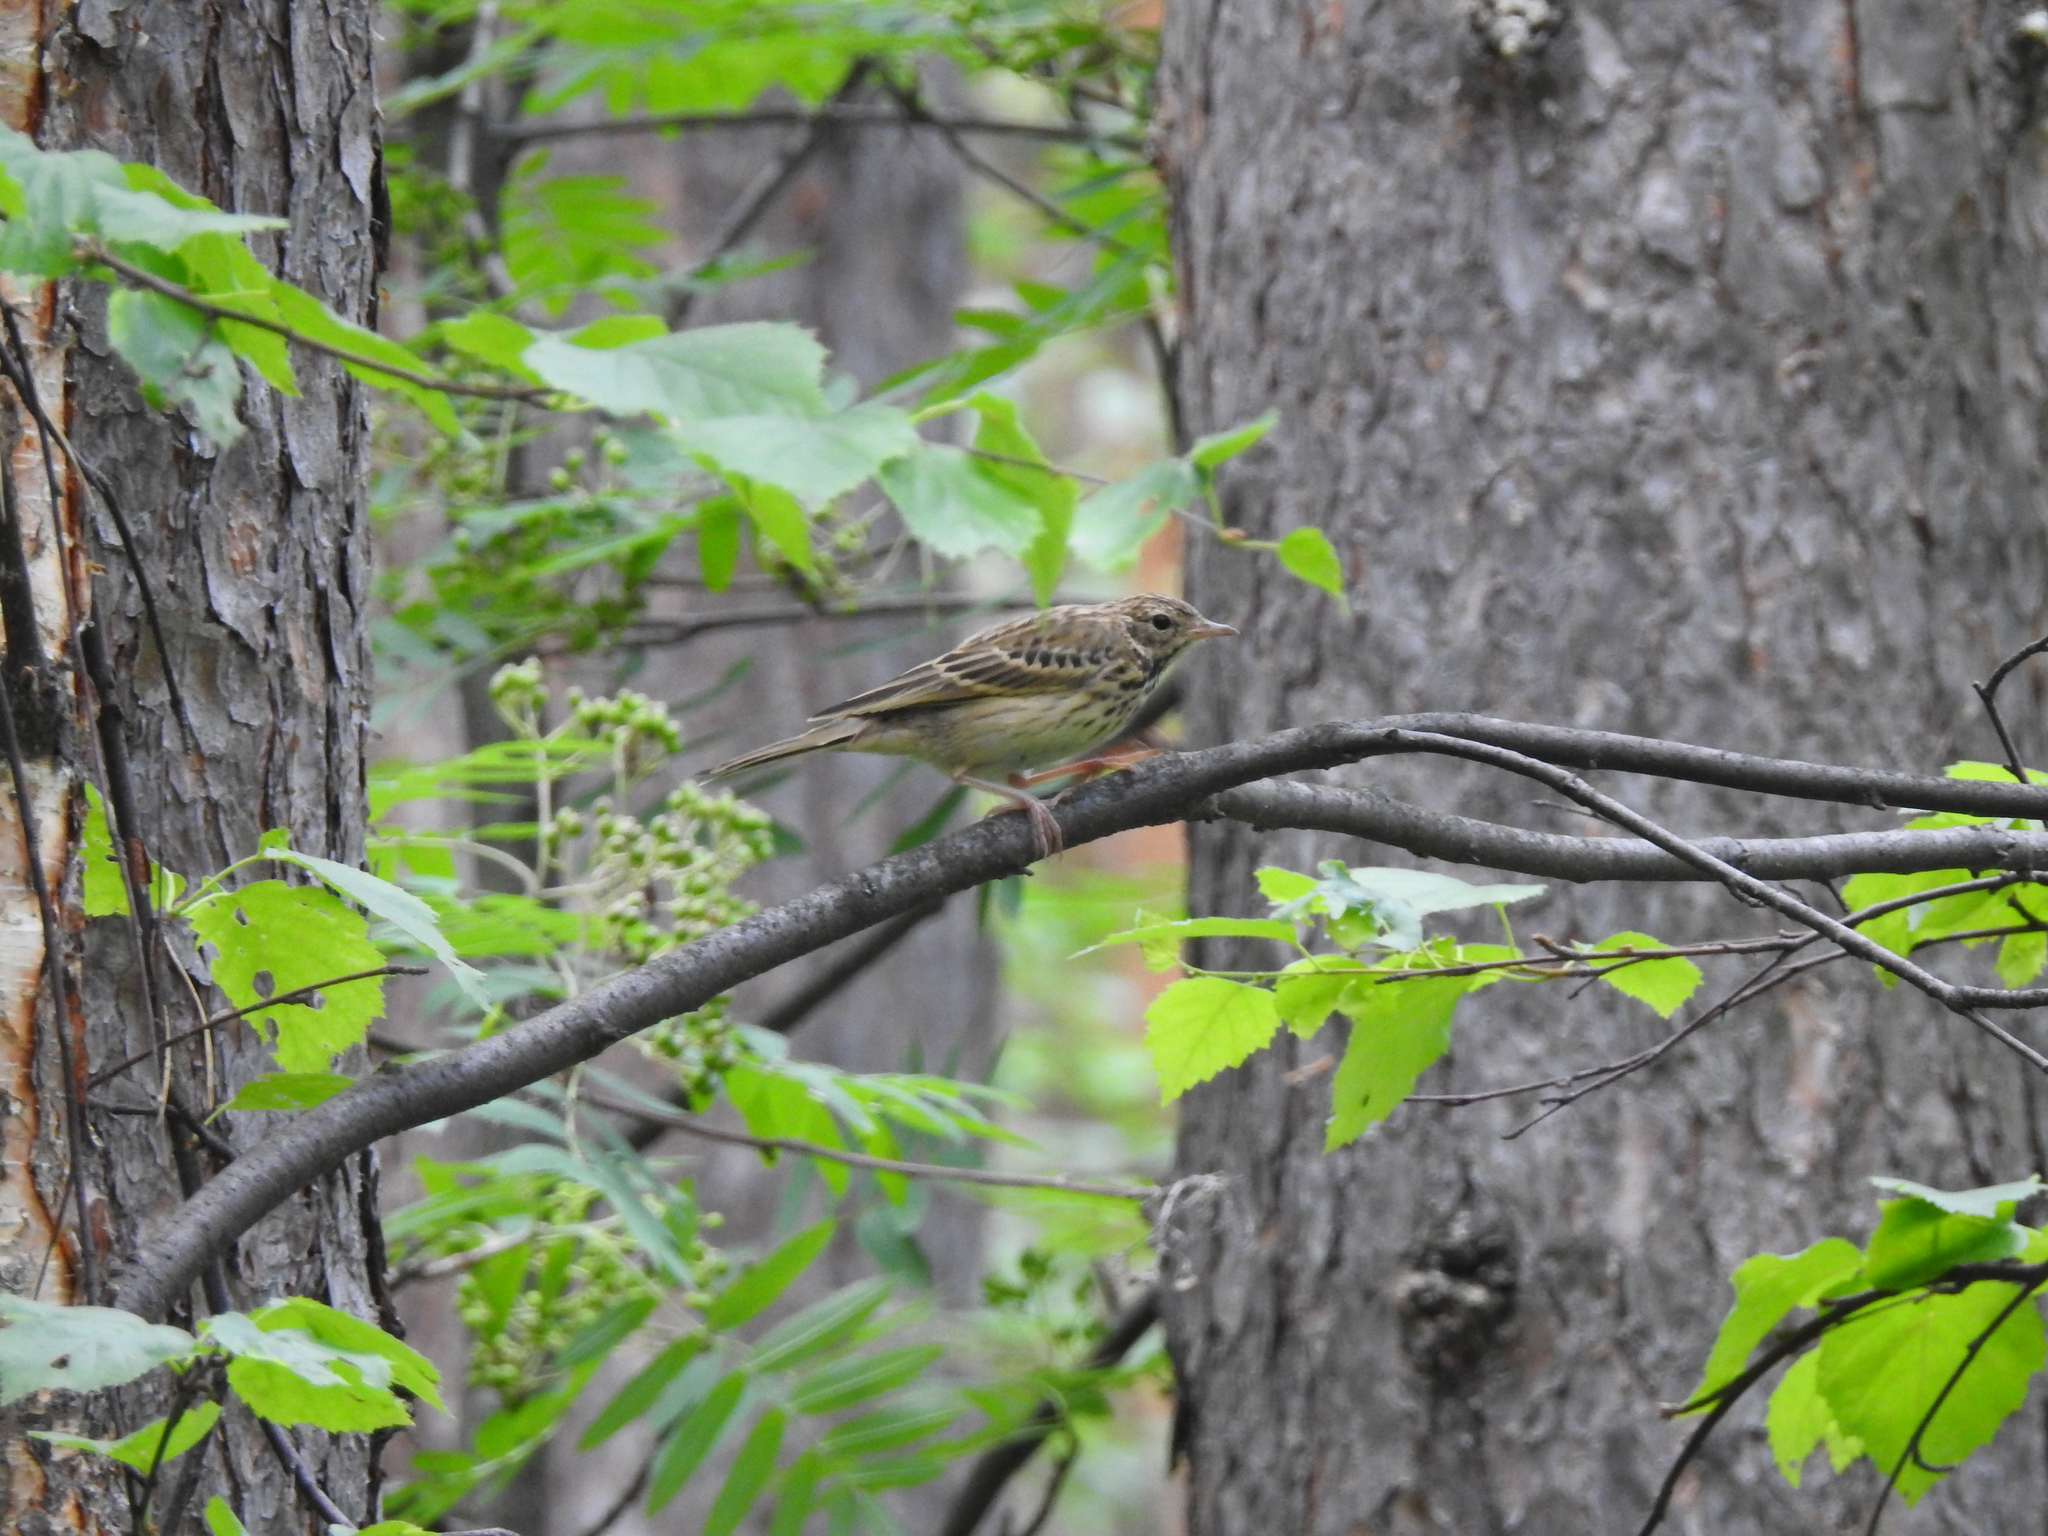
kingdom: Animalia
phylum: Chordata
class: Aves
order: Passeriformes
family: Motacillidae
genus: Anthus
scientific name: Anthus trivialis
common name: Tree pipit
